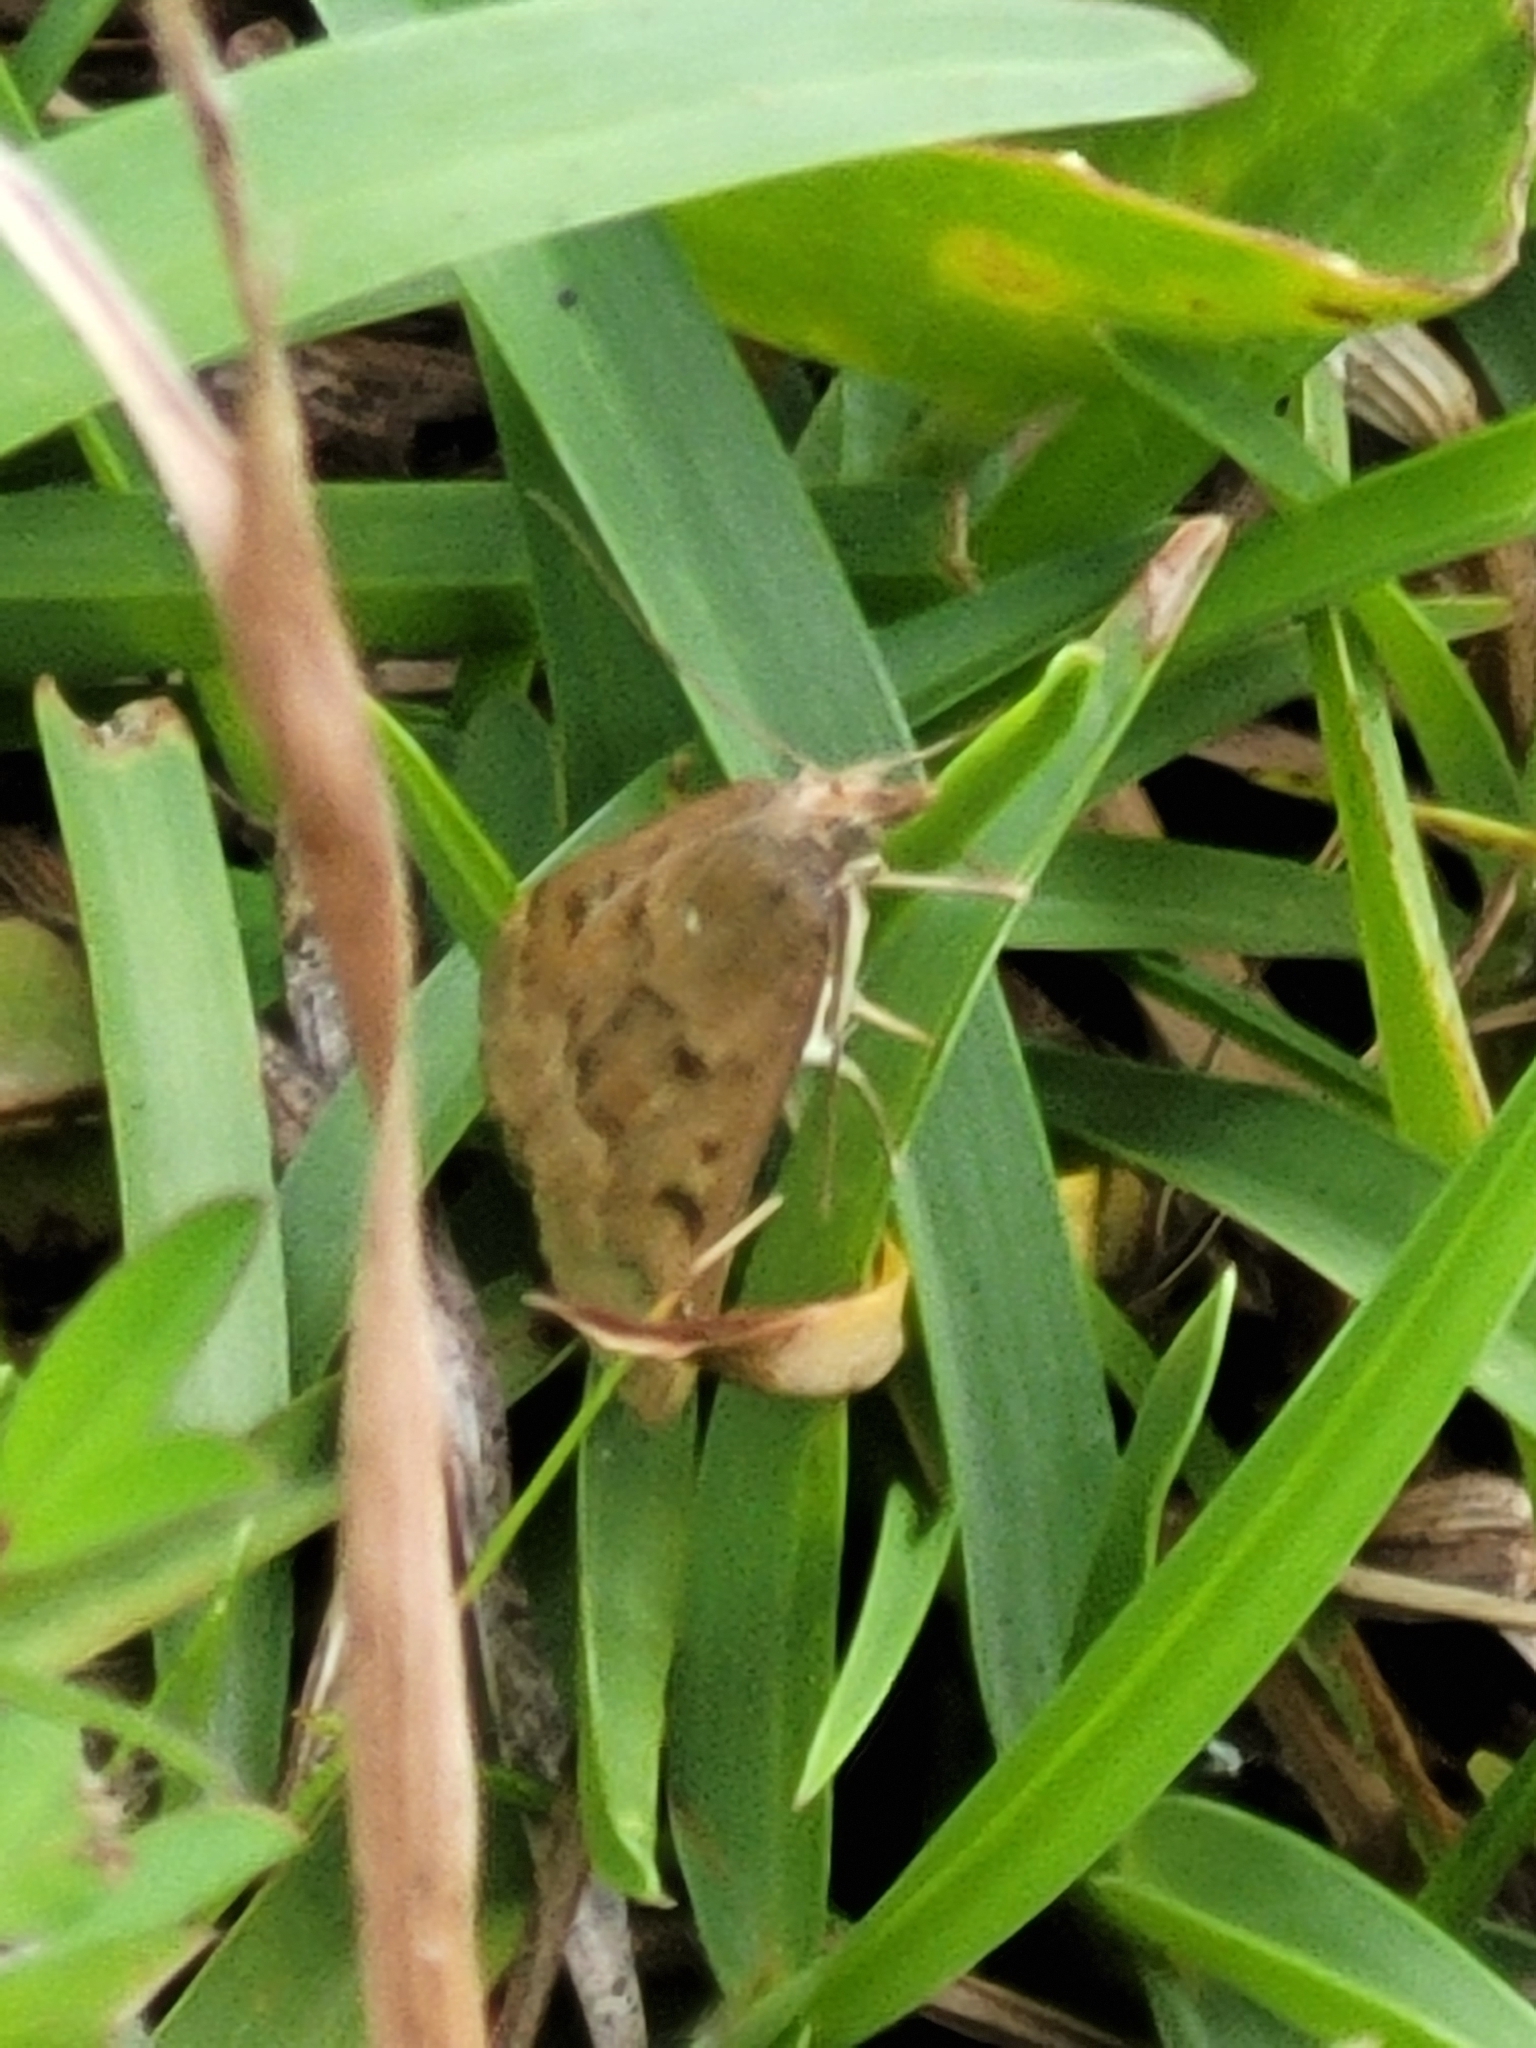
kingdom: Animalia
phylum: Arthropoda
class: Insecta
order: Lepidoptera
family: Crambidae
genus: Achyra
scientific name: Achyra rantalis
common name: Garden webworm
